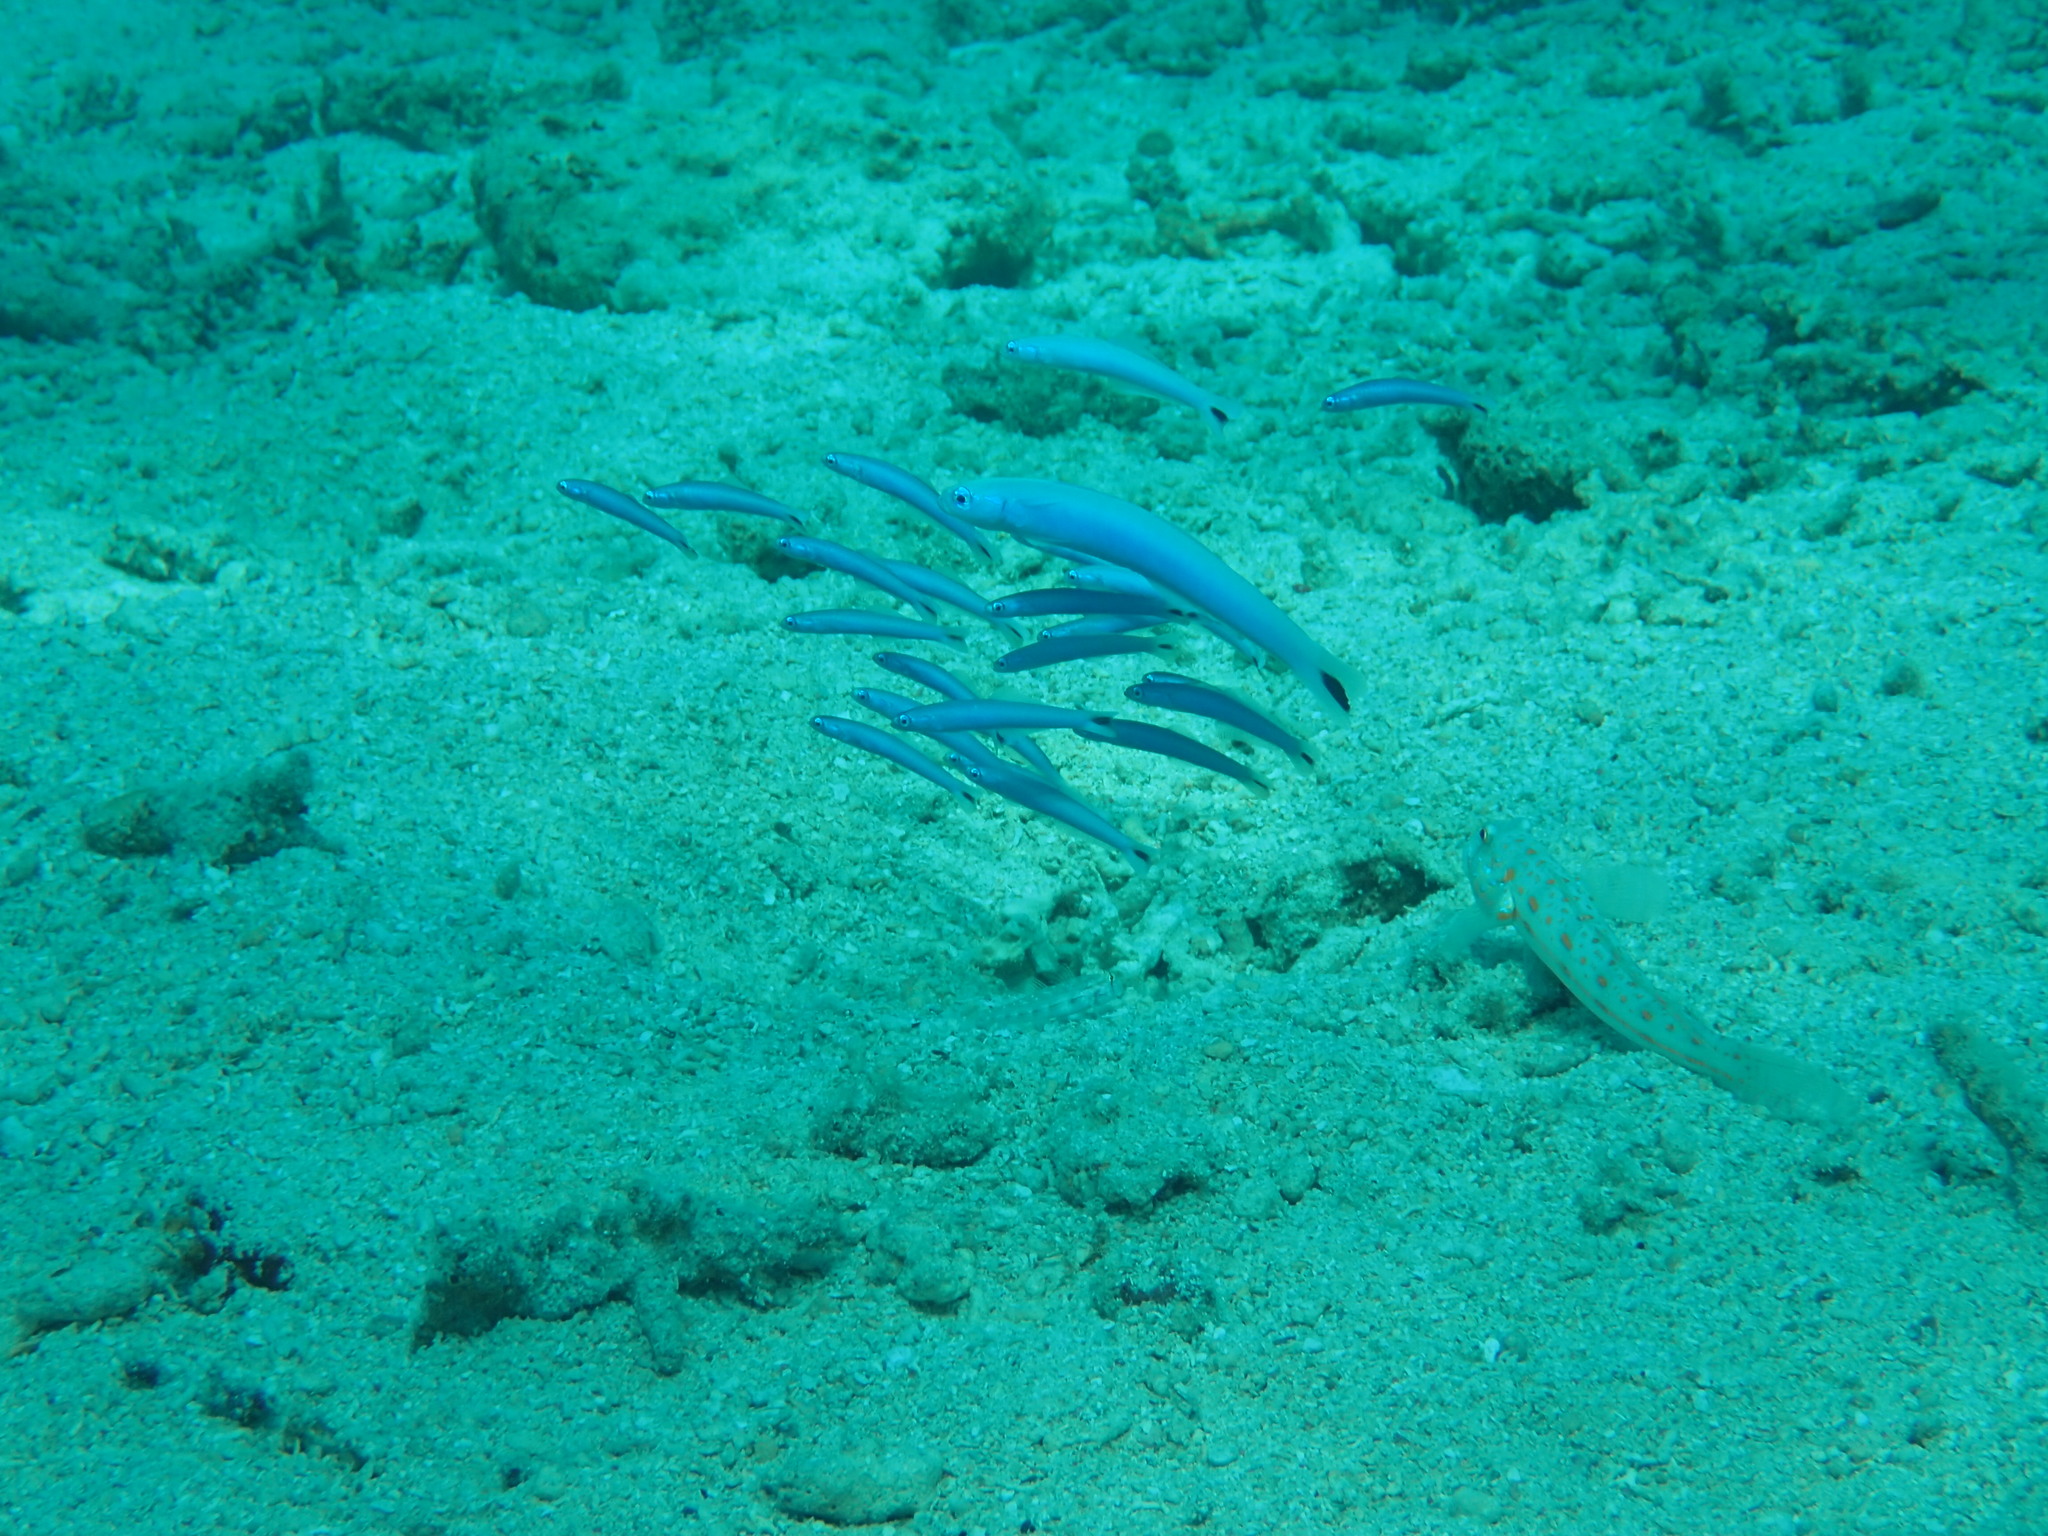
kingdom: Animalia
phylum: Chordata
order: Perciformes
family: Microdesmidae
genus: Ptereleotris
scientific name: Ptereleotris heteroptera
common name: Blacktail goby
